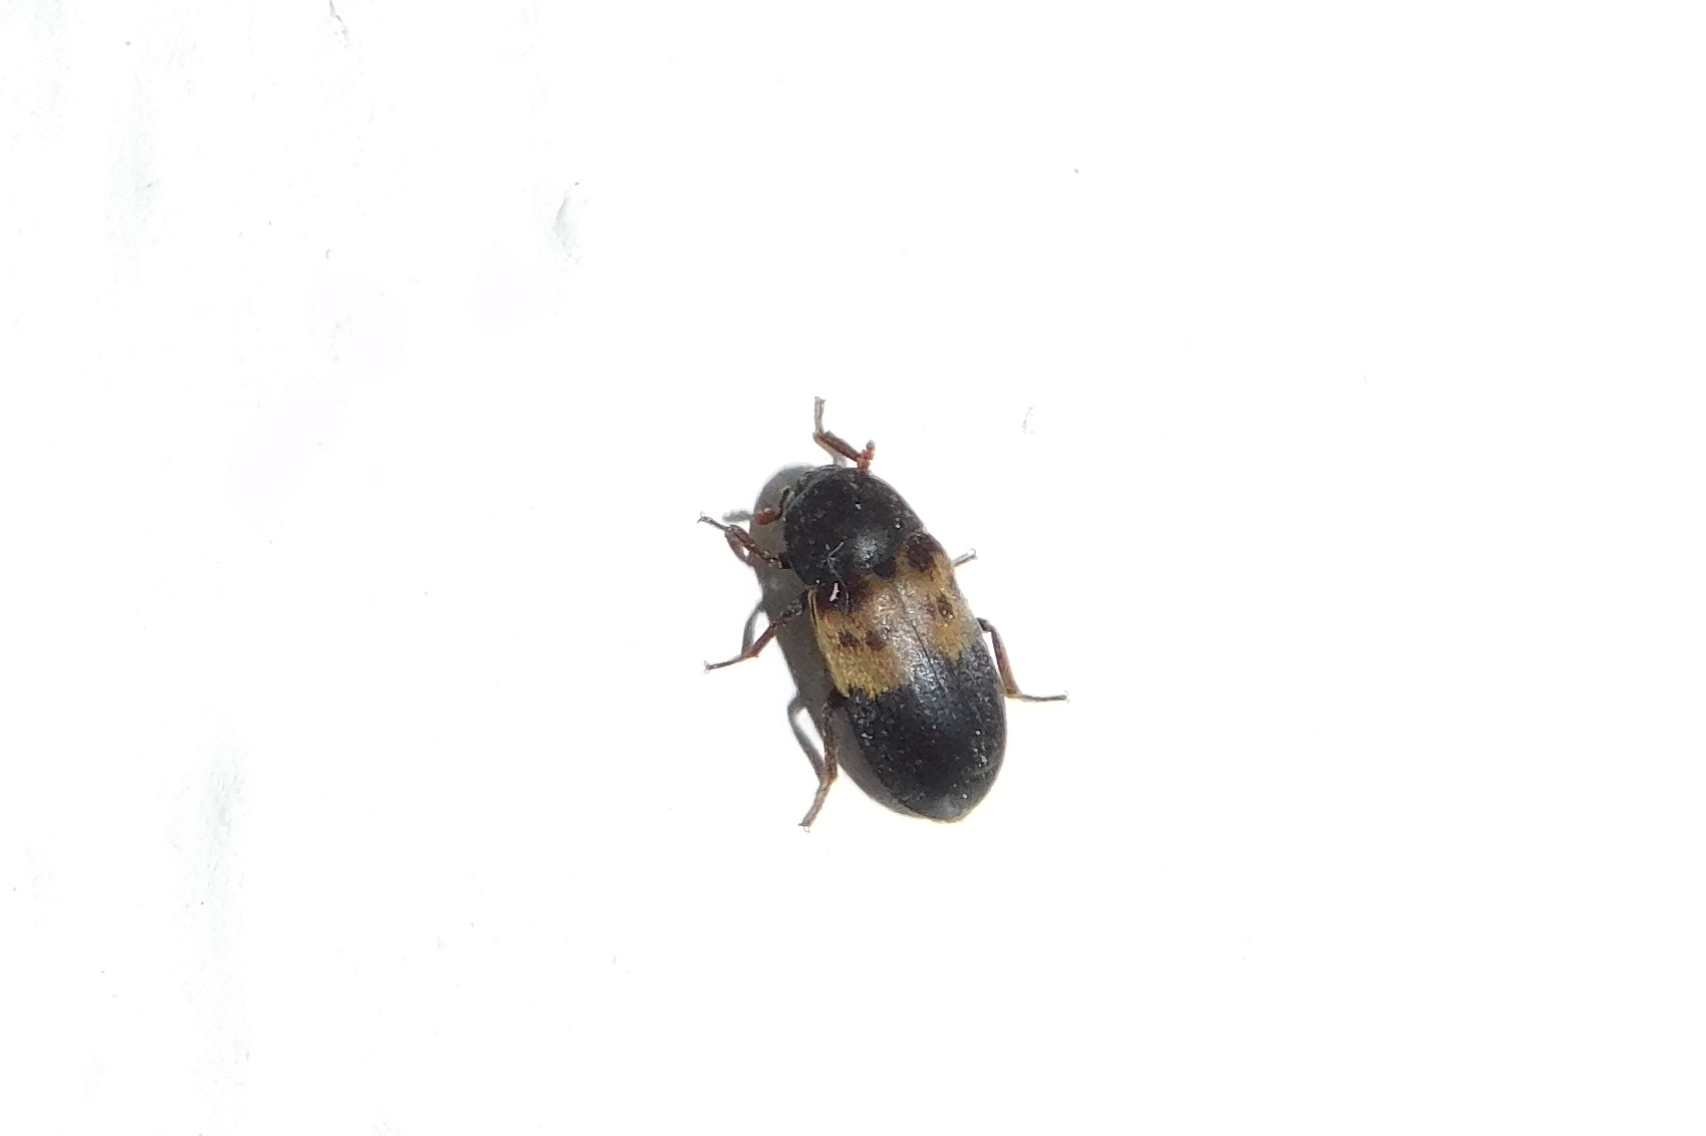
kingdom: Animalia
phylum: Arthropoda
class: Insecta
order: Coleoptera
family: Dermestidae
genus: Dermestes
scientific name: Dermestes lardarius
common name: Larder beetle
